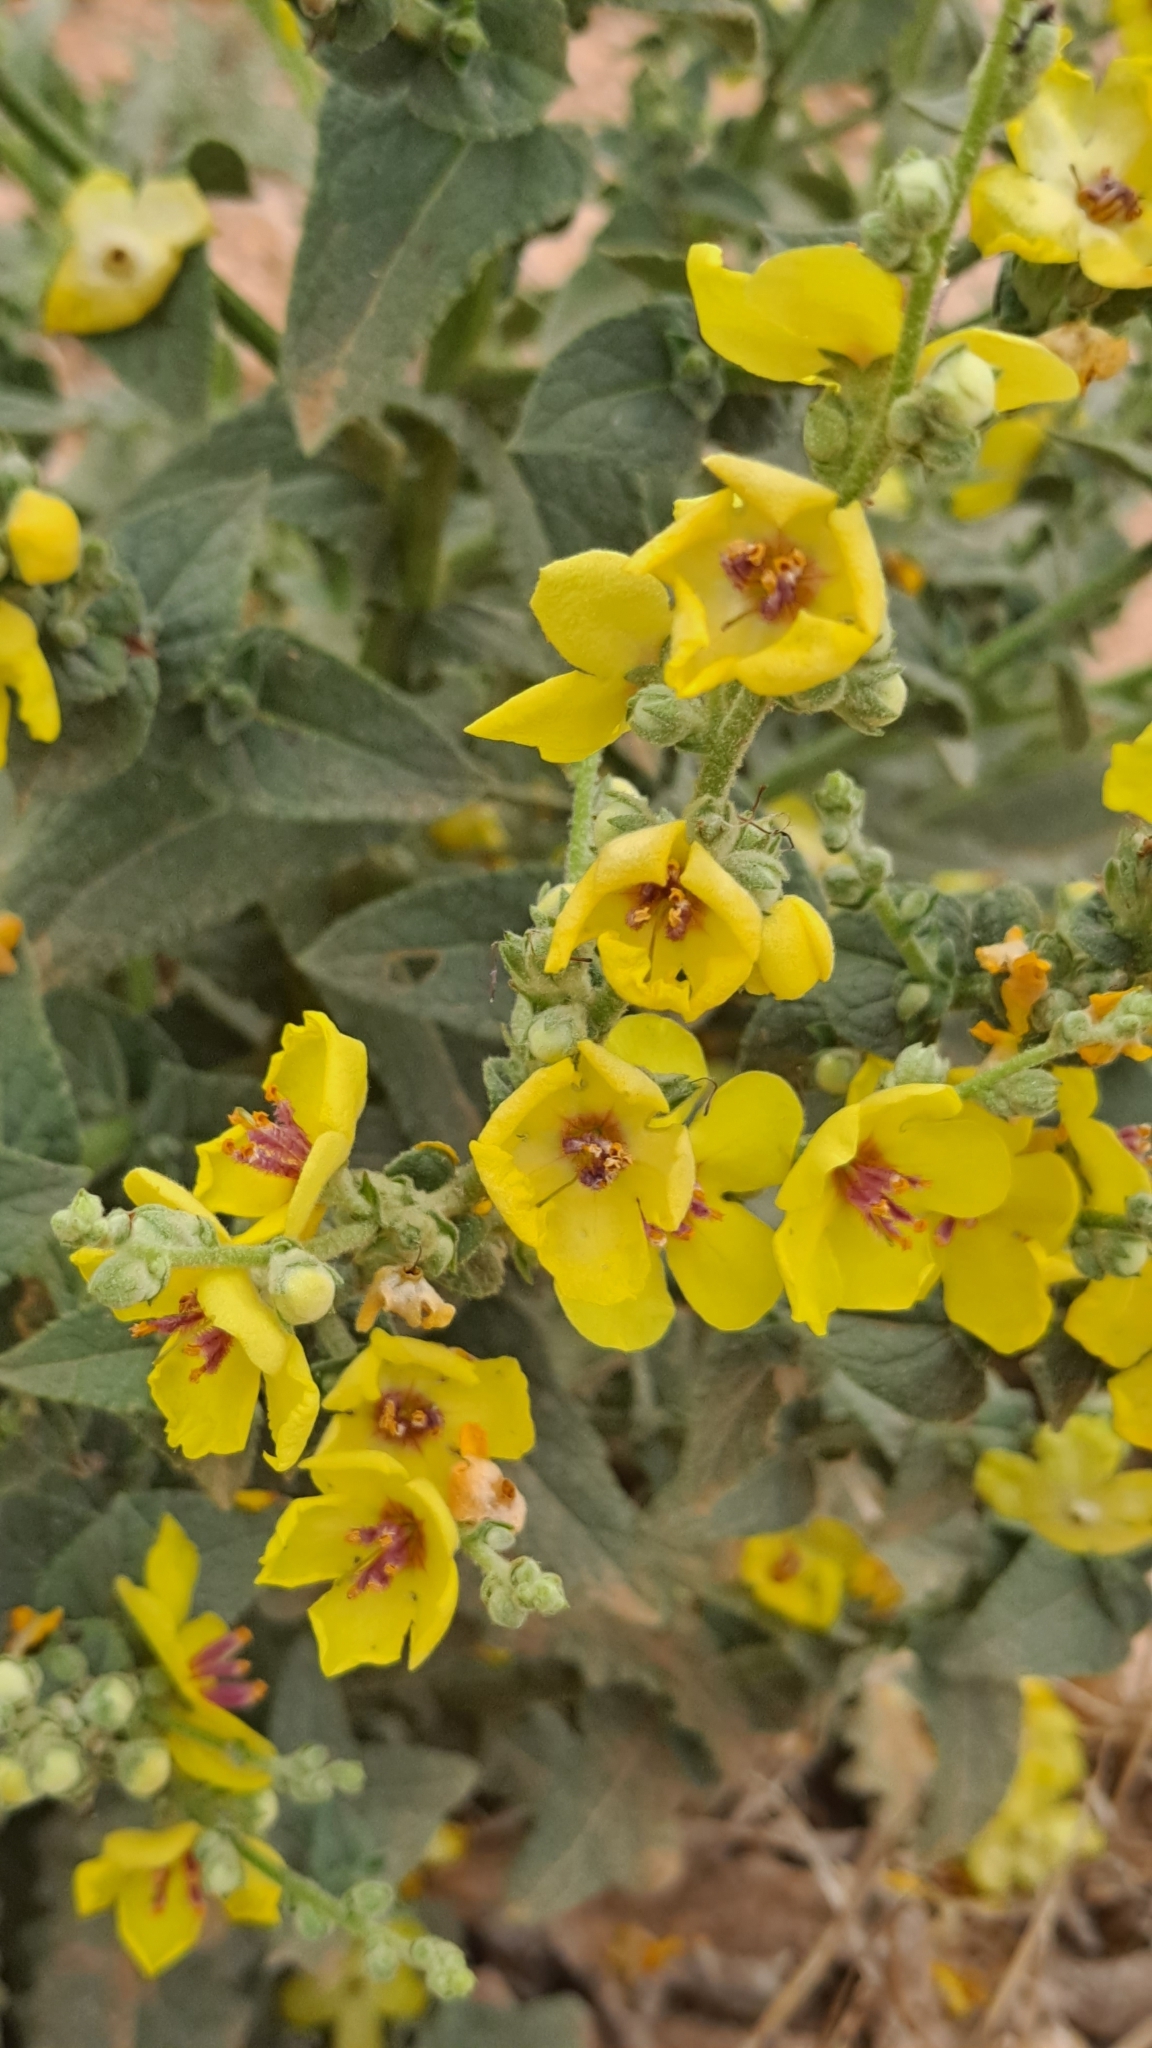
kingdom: Plantae
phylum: Tracheophyta
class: Magnoliopsida
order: Lamiales
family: Scrophulariaceae
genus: Verbascum
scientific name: Verbascum sinuatum
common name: Wavyleaf mullein
